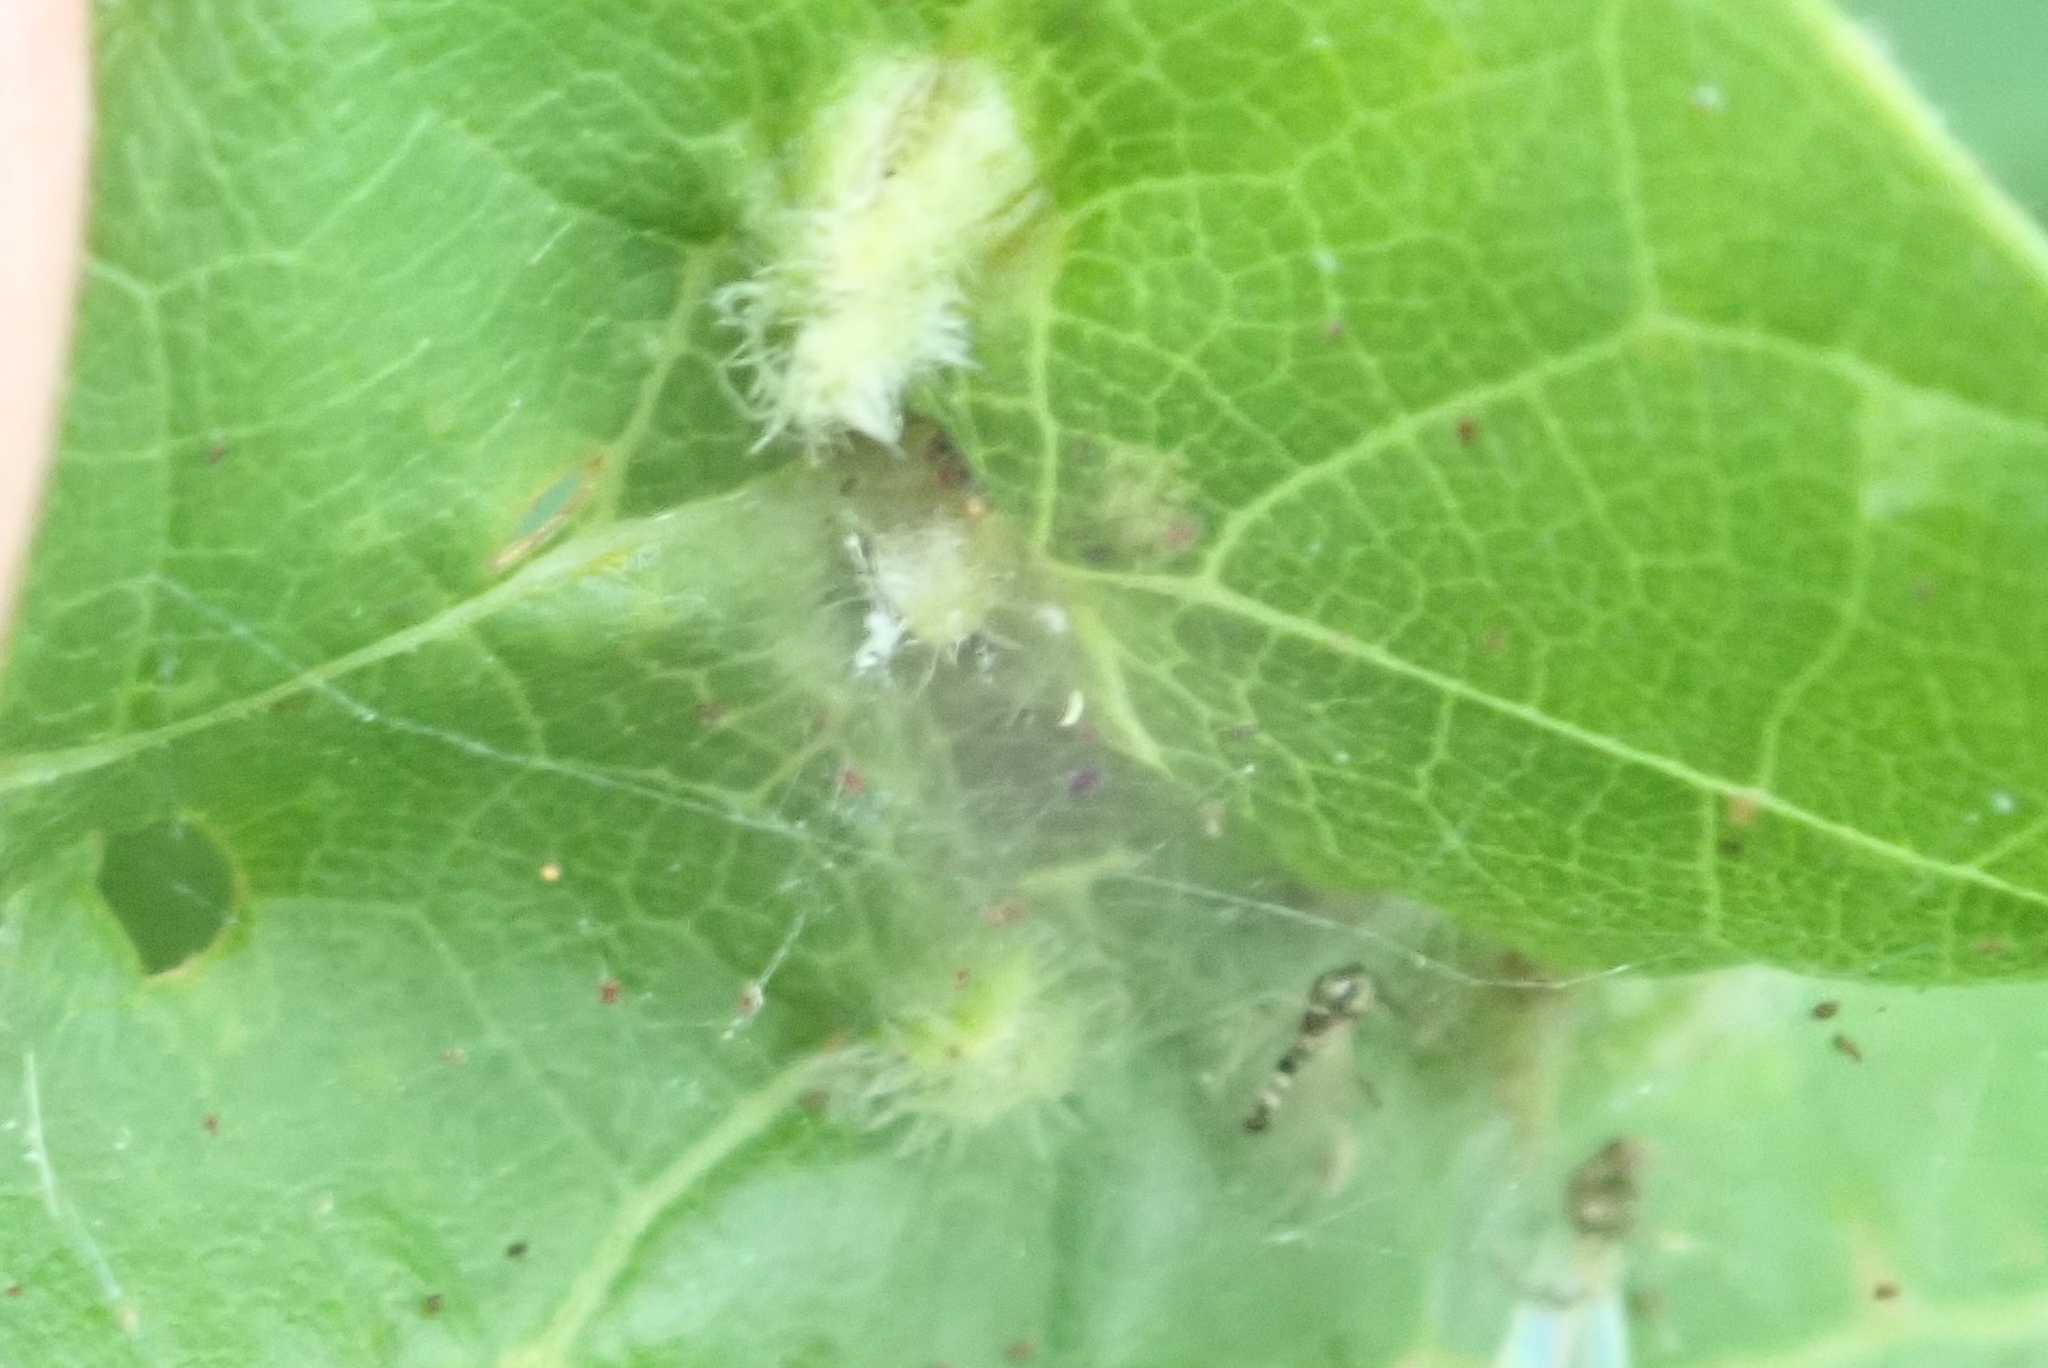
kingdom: Animalia
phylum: Arthropoda
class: Insecta
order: Hemiptera
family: Phylloxeridae
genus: Daktulosphaira
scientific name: Daktulosphaira vitifoliae
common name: Grape phylloxera
